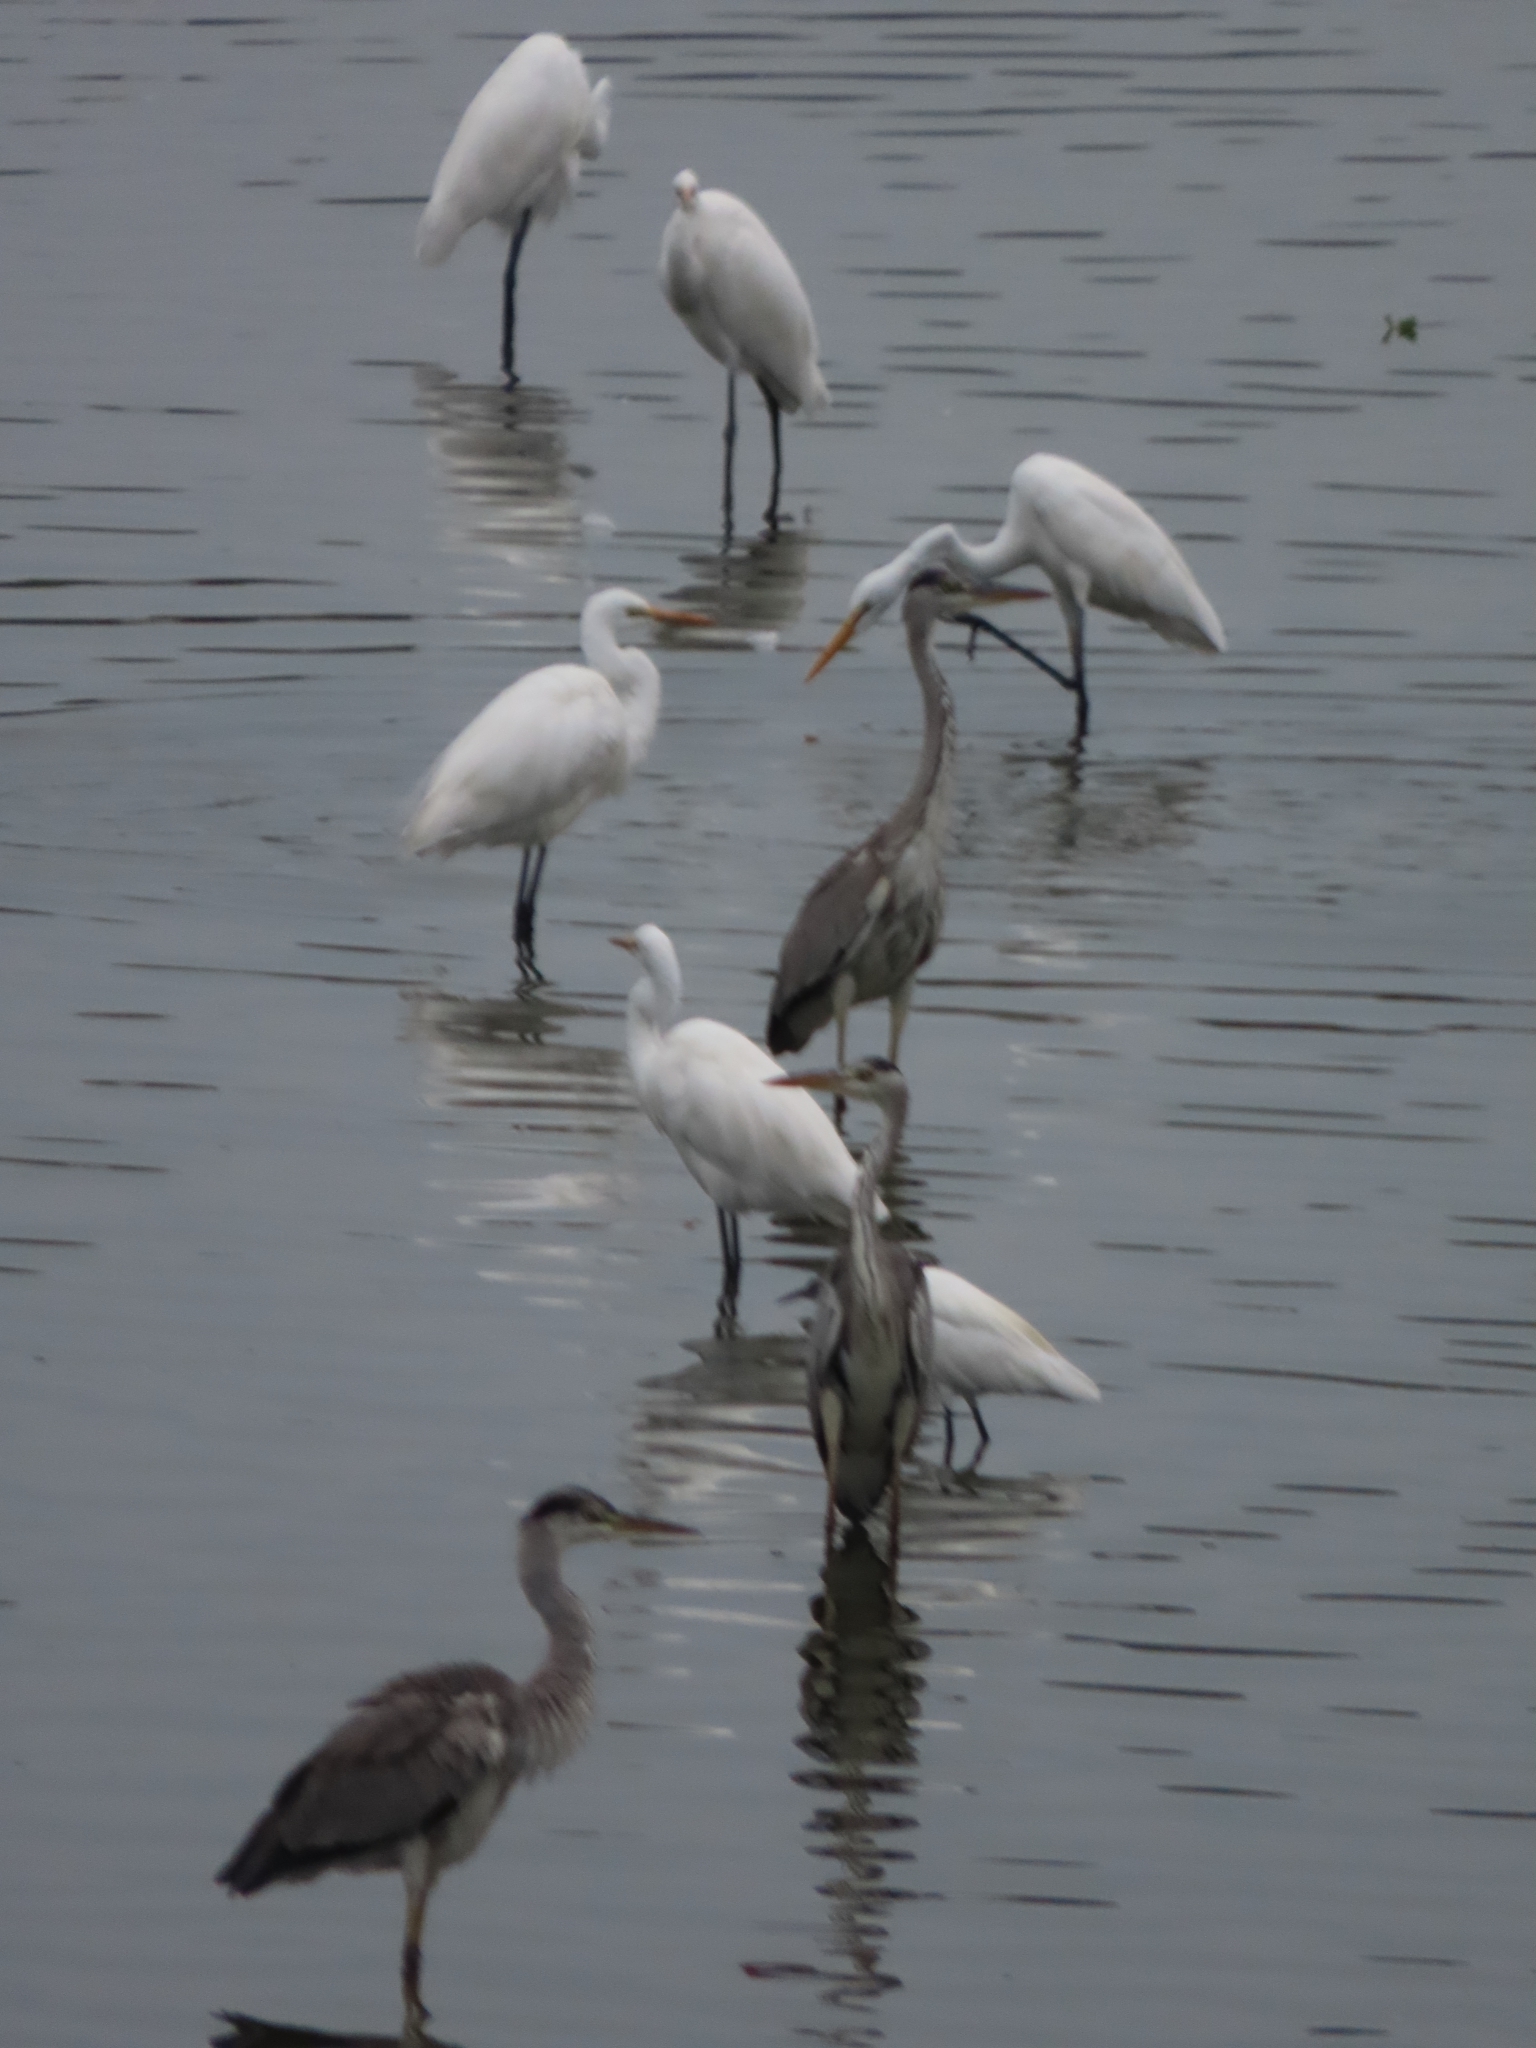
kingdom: Animalia
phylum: Chordata
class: Aves
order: Pelecaniformes
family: Ardeidae
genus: Ardea
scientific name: Ardea cinerea
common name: Grey heron
